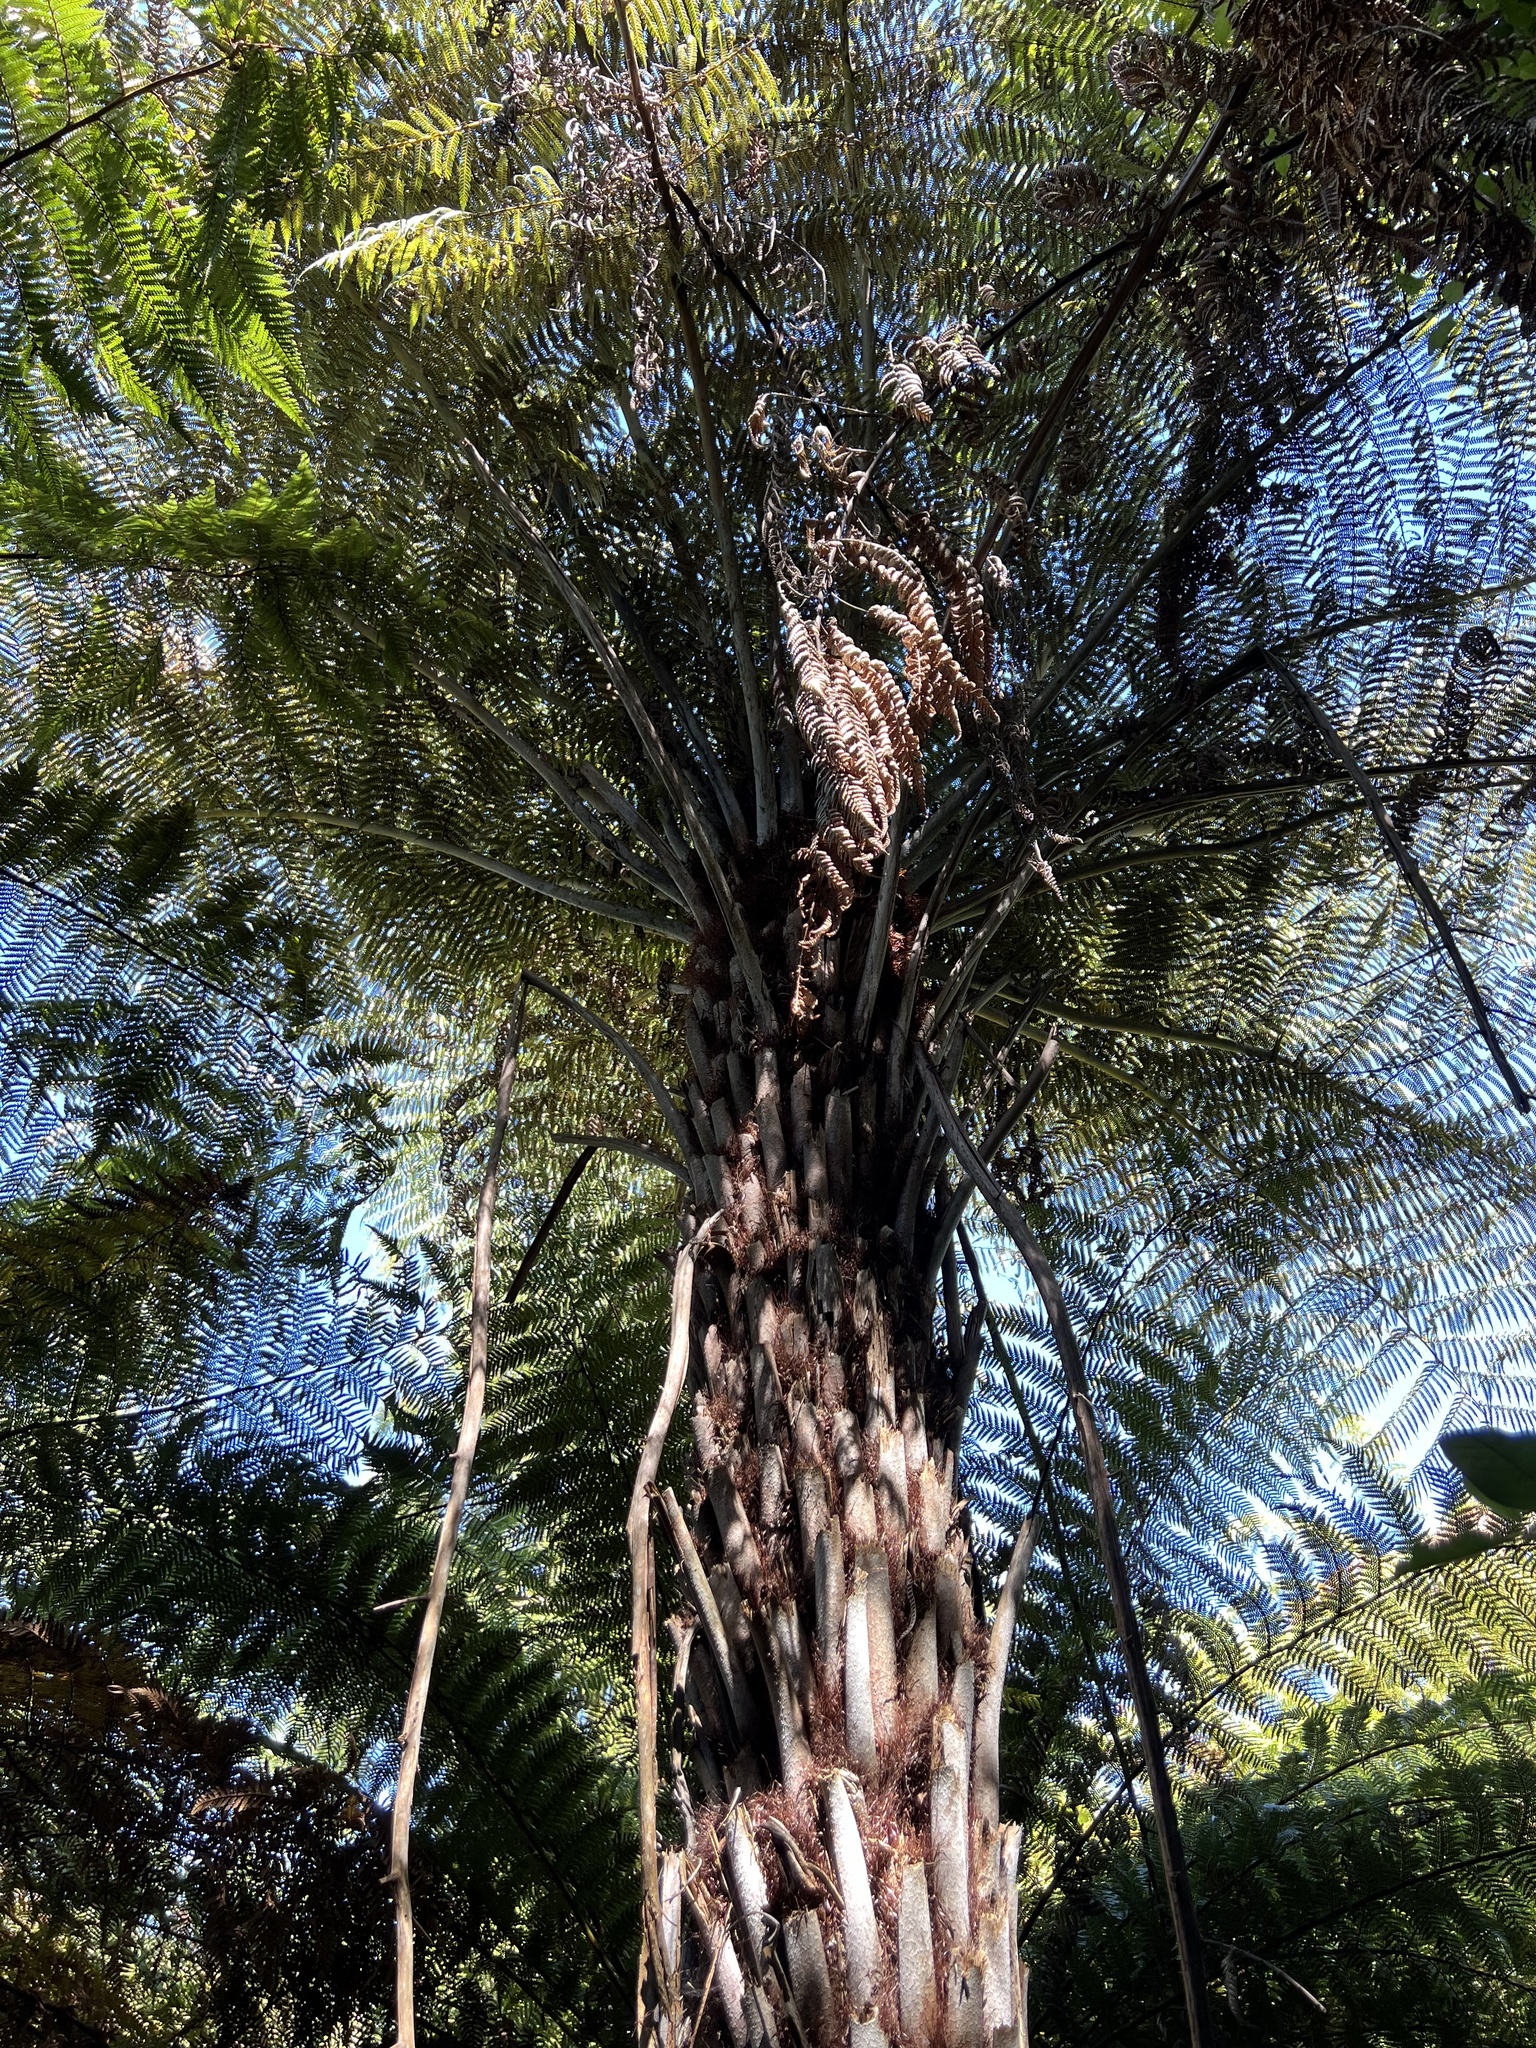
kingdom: Plantae
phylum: Tracheophyta
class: Polypodiopsida
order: Cyatheales
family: Cyatheaceae
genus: Alsophila
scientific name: Alsophila dealbata
